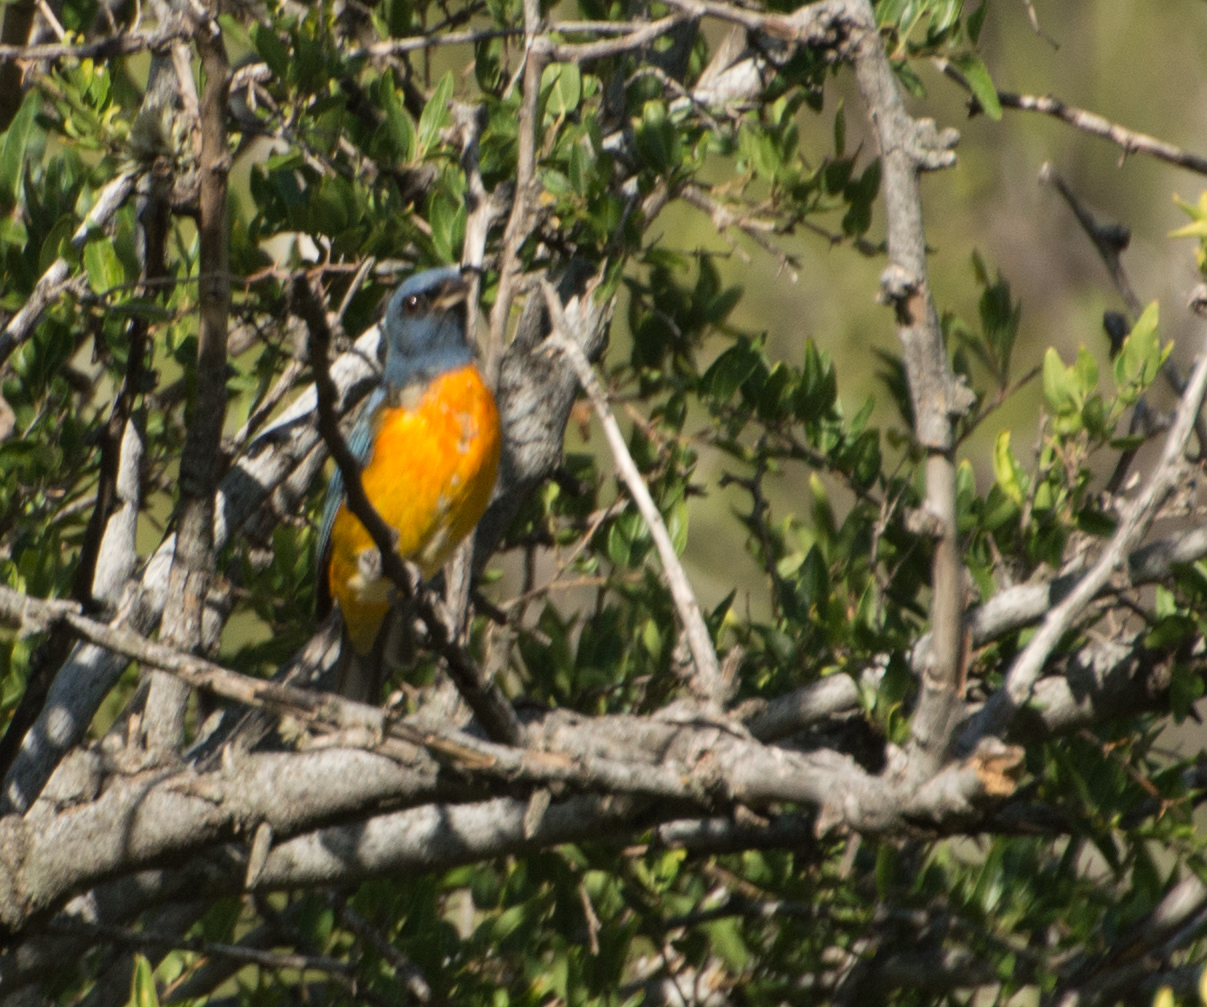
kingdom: Animalia
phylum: Chordata
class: Aves
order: Passeriformes
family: Thraupidae
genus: Rauenia
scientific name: Rauenia bonariensis
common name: Blue-and-yellow tanager
